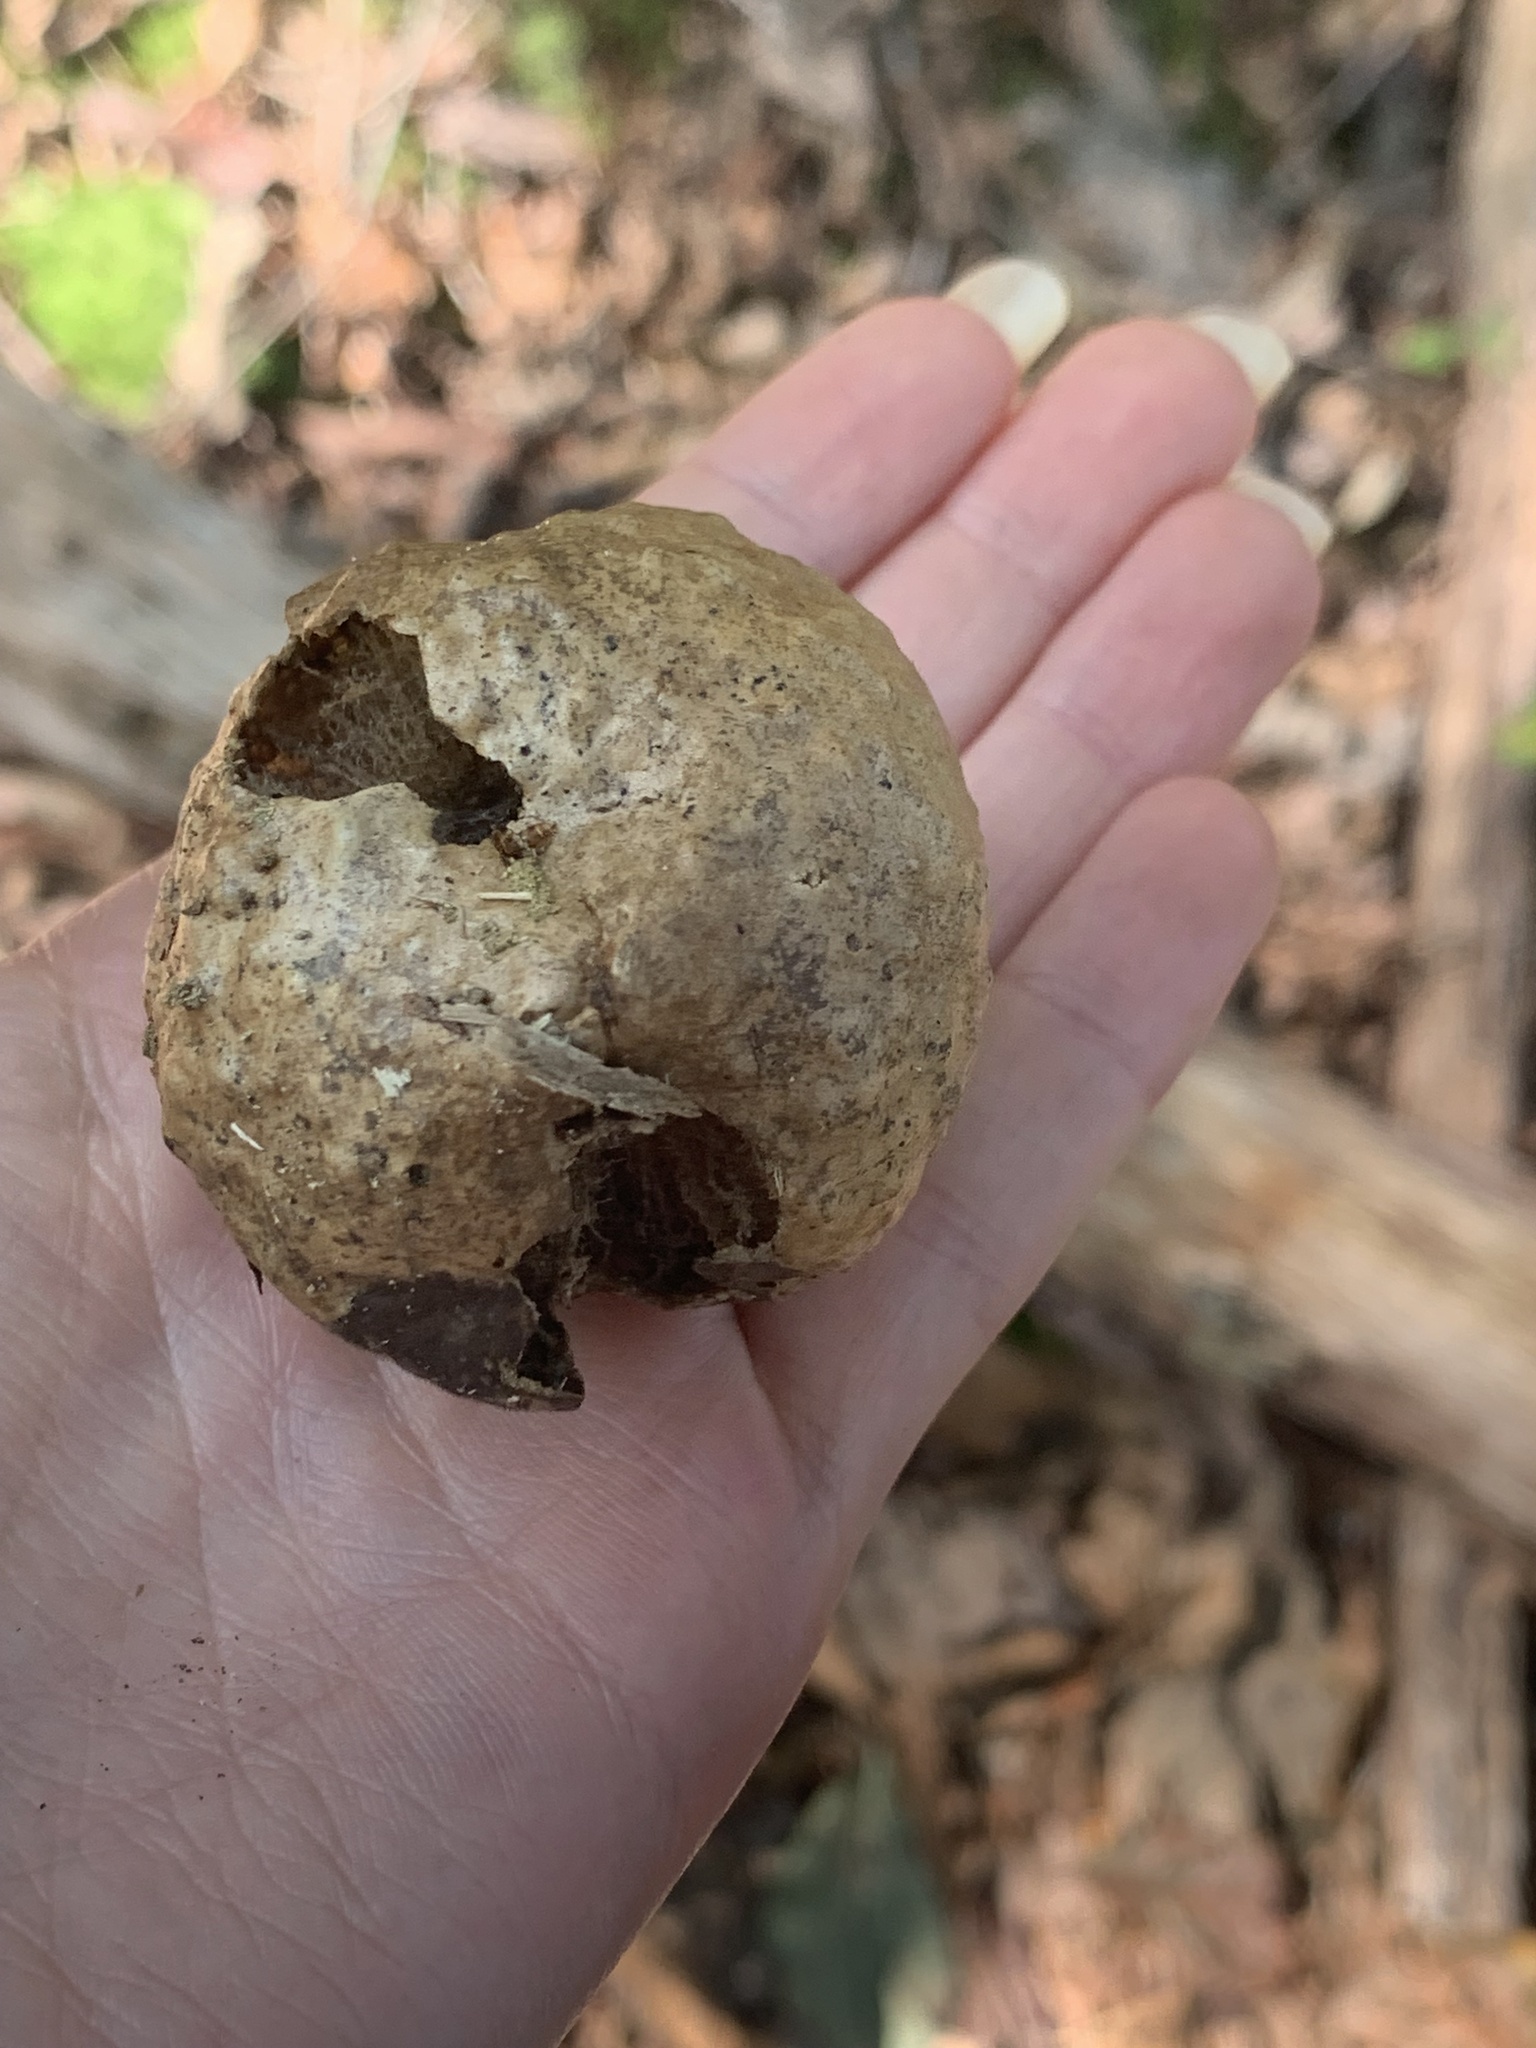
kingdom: Animalia
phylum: Arthropoda
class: Insecta
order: Hymenoptera
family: Cynipidae
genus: Amphibolips
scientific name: Amphibolips
